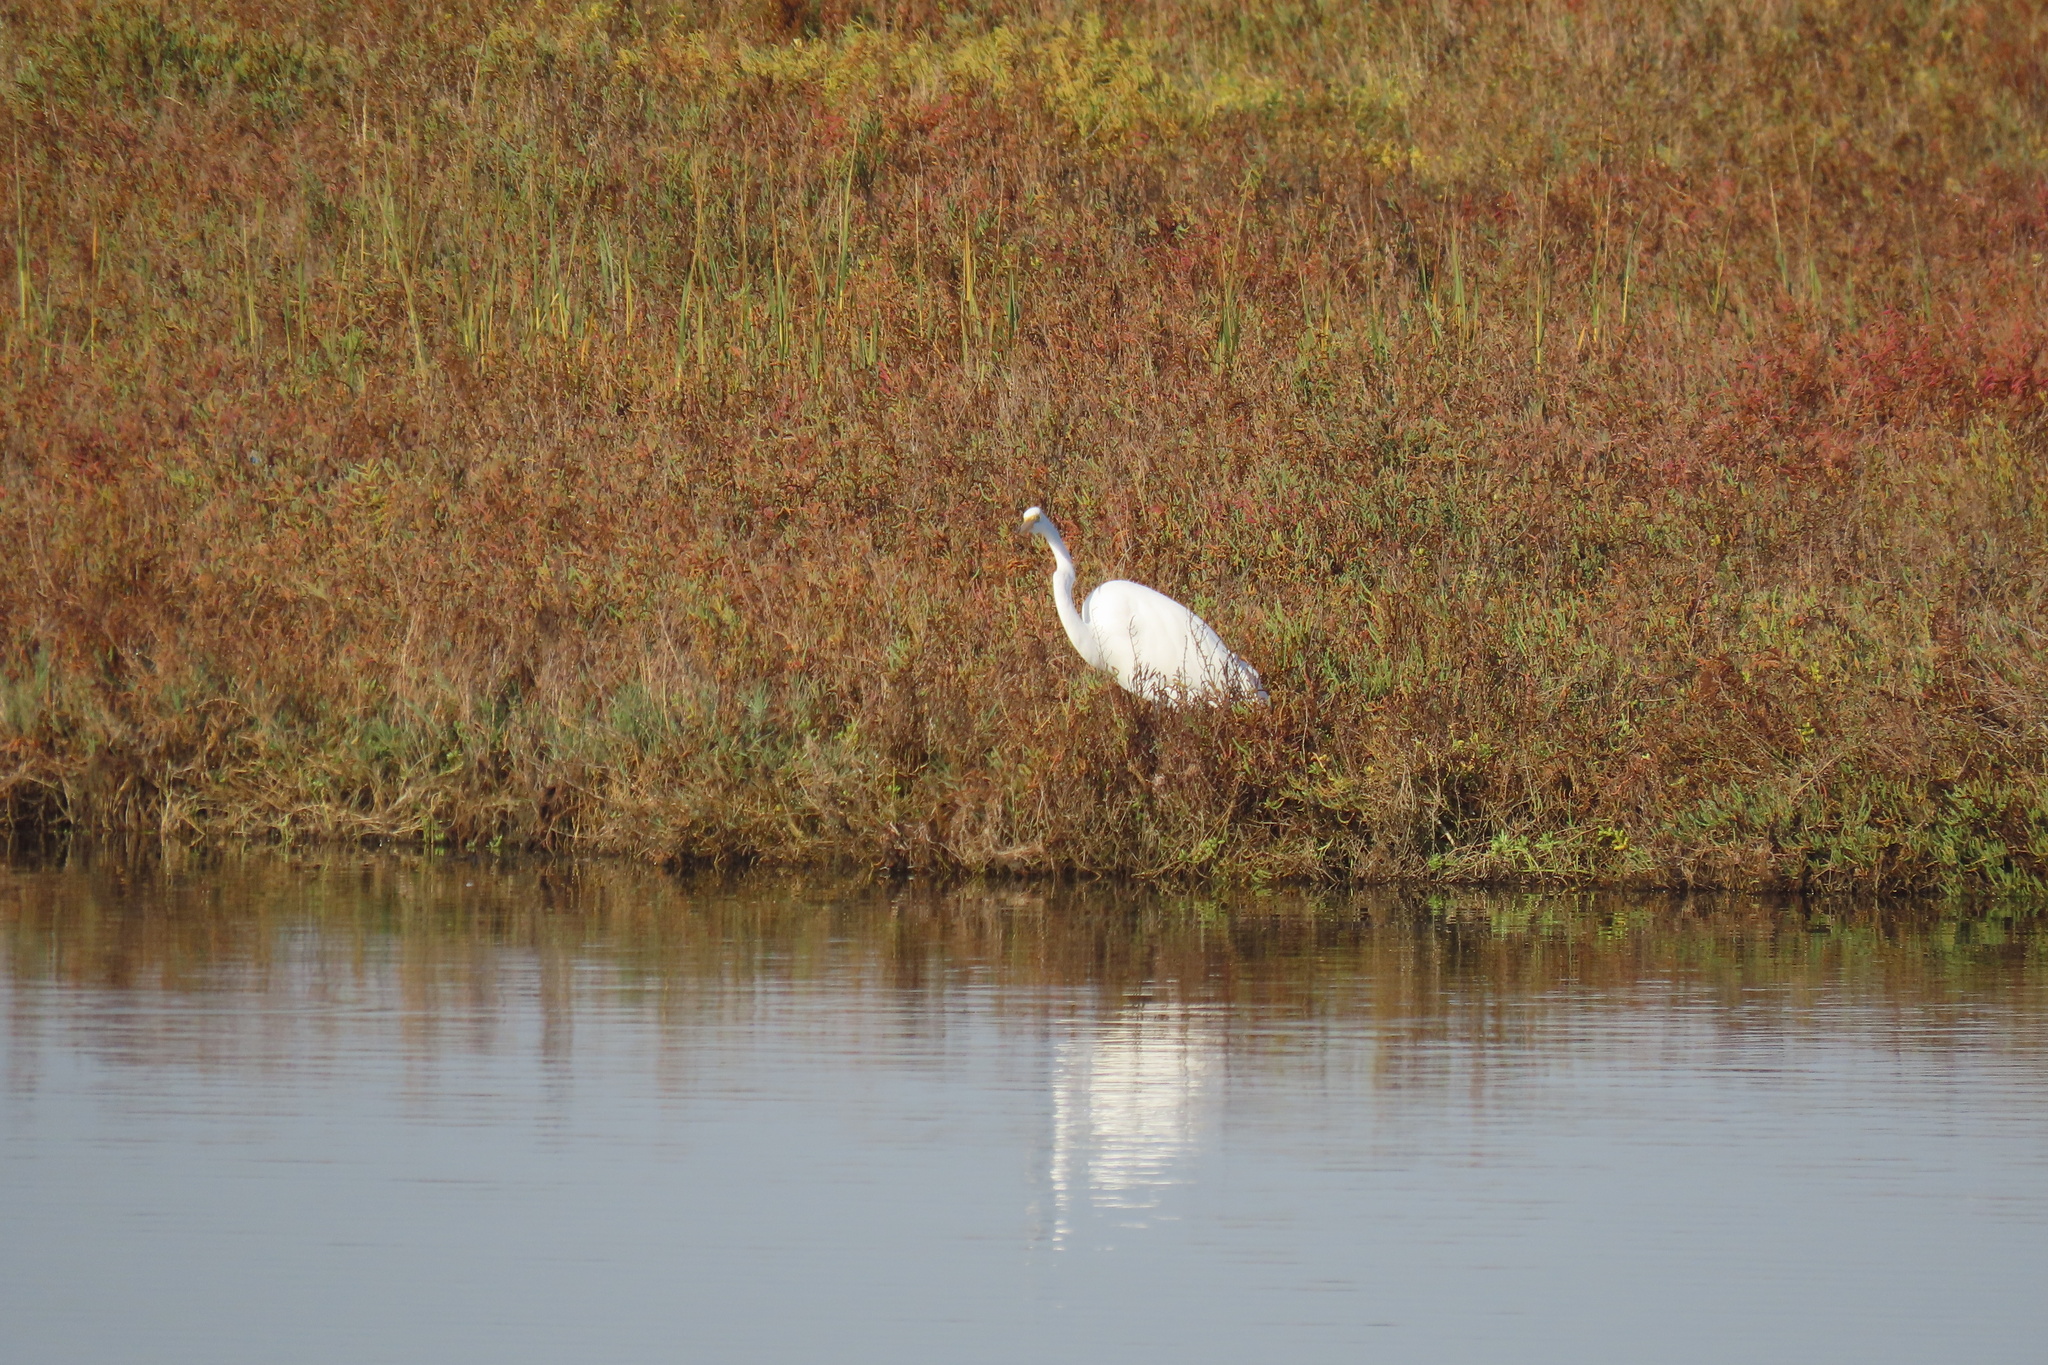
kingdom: Animalia
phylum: Chordata
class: Aves
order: Pelecaniformes
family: Ardeidae
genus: Ardea
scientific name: Ardea alba
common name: Great egret
